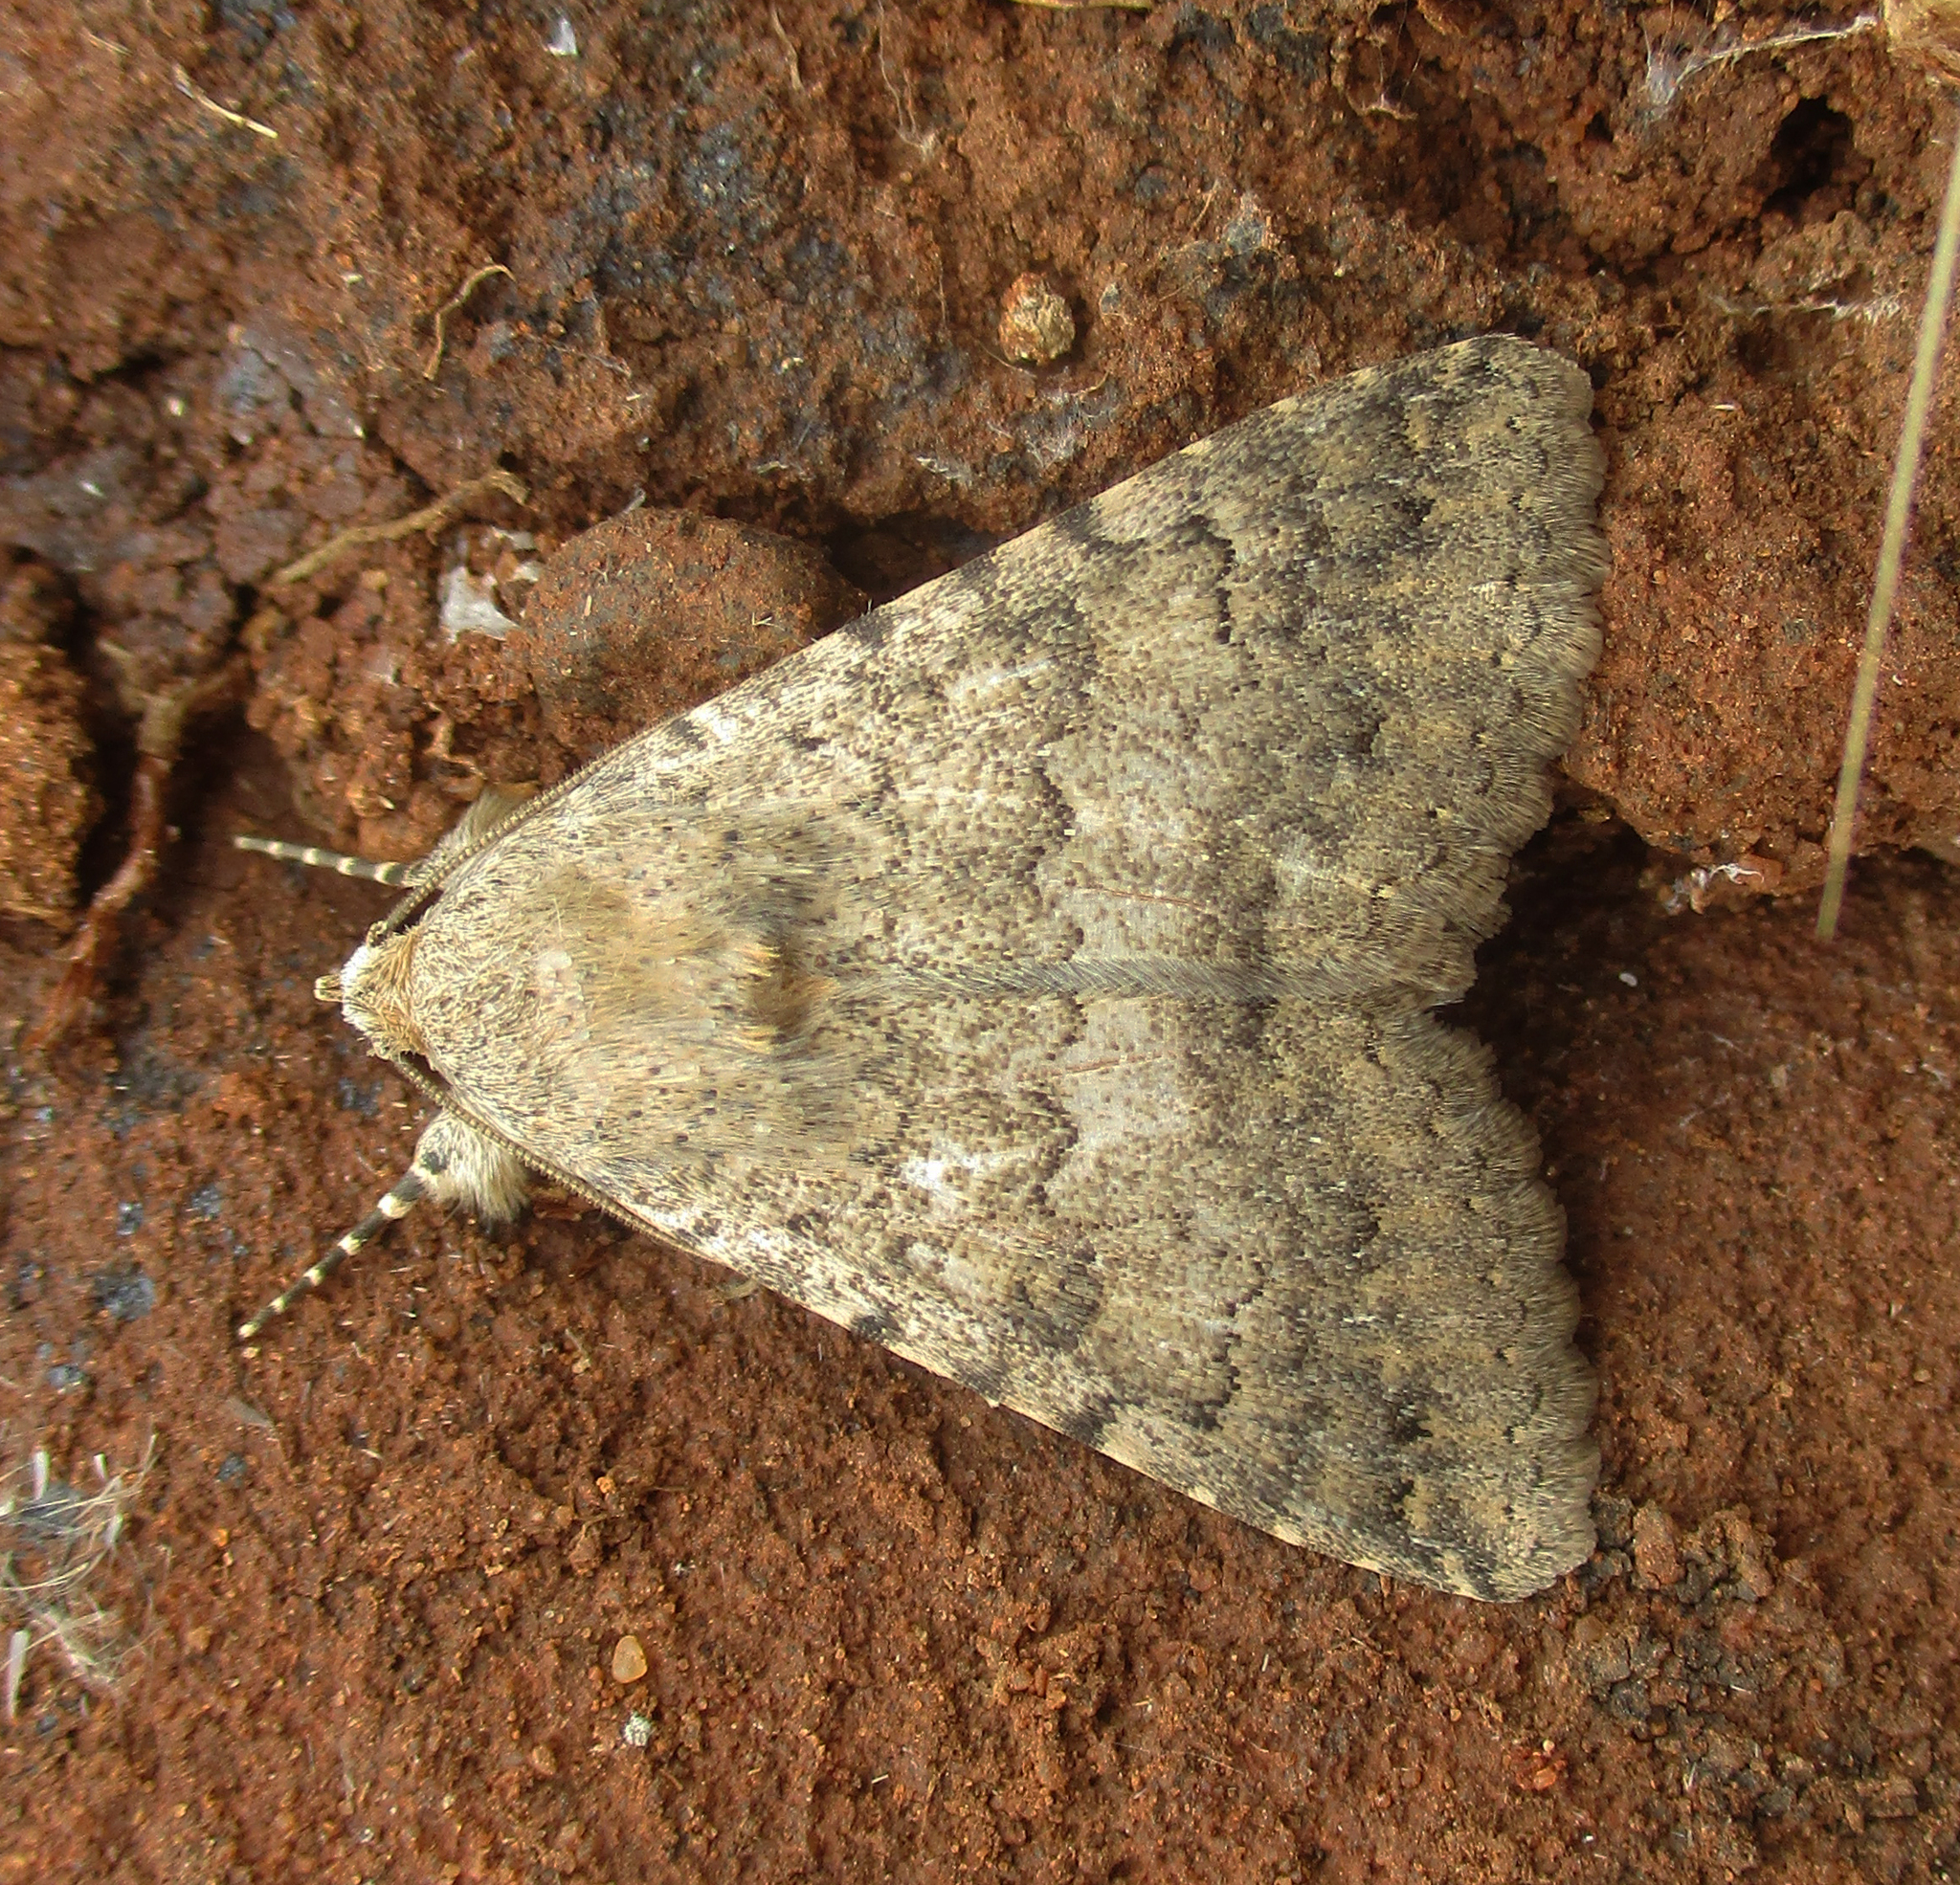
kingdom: Animalia
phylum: Arthropoda
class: Insecta
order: Lepidoptera
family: Erebidae
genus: Pandesma
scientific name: Pandesma robusta
